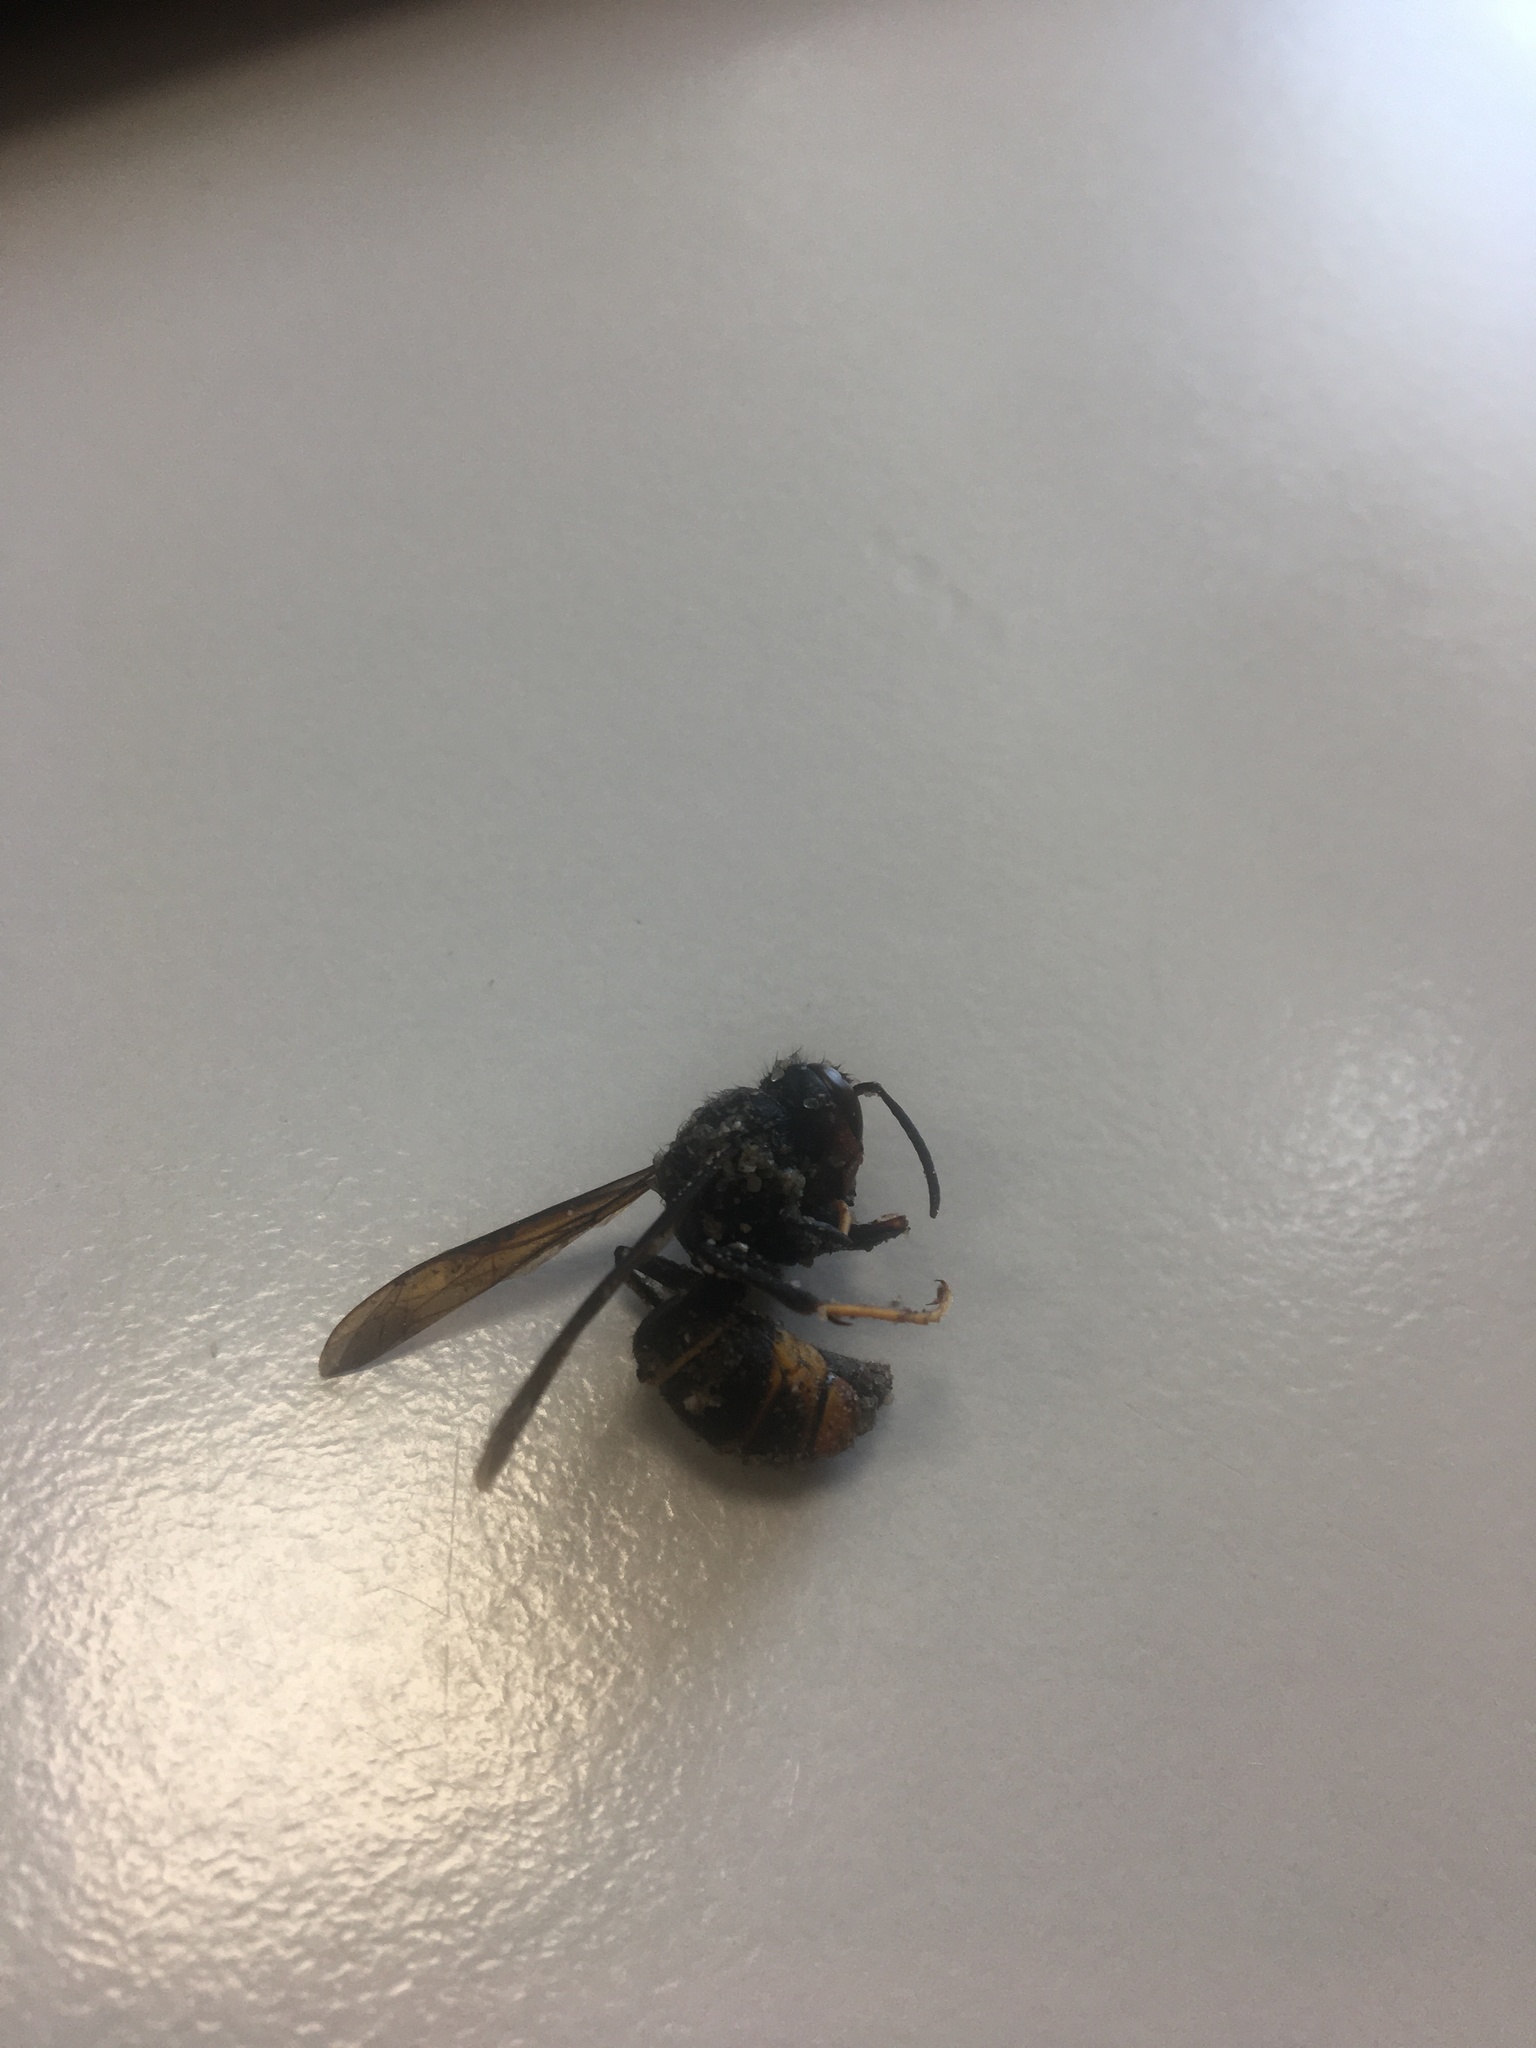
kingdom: Animalia
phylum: Arthropoda
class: Insecta
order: Hymenoptera
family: Vespidae
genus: Vespa
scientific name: Vespa velutina
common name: Asian hornet
